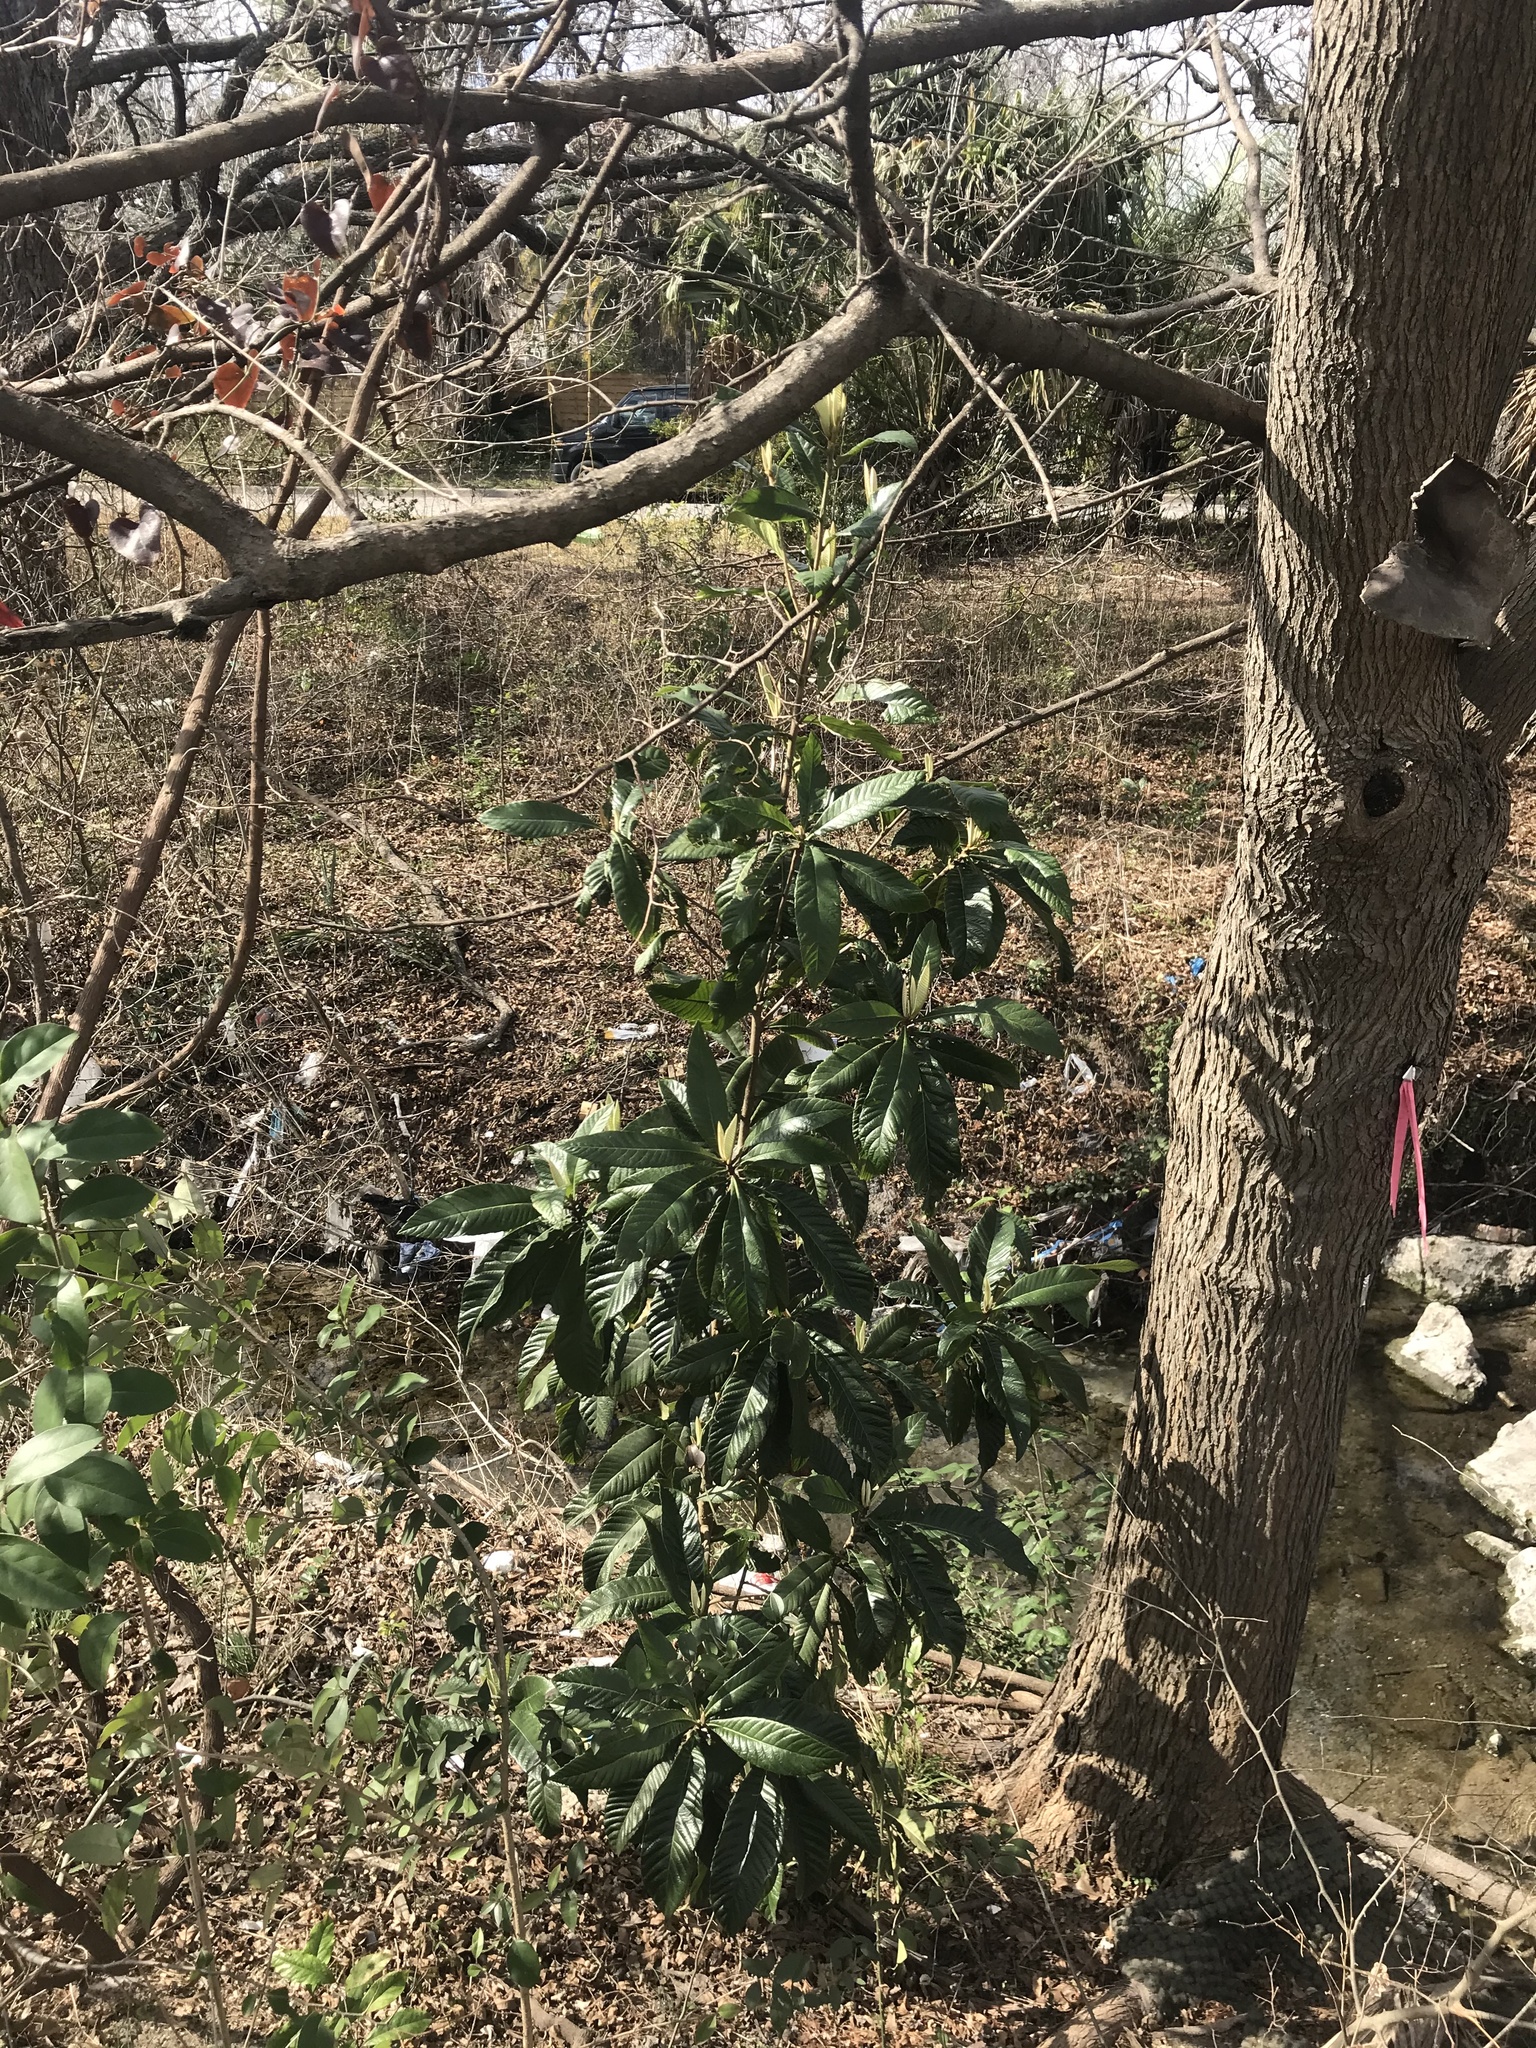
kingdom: Plantae
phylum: Tracheophyta
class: Magnoliopsida
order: Rosales
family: Rosaceae
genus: Rhaphiolepis
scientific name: Rhaphiolepis bibas
